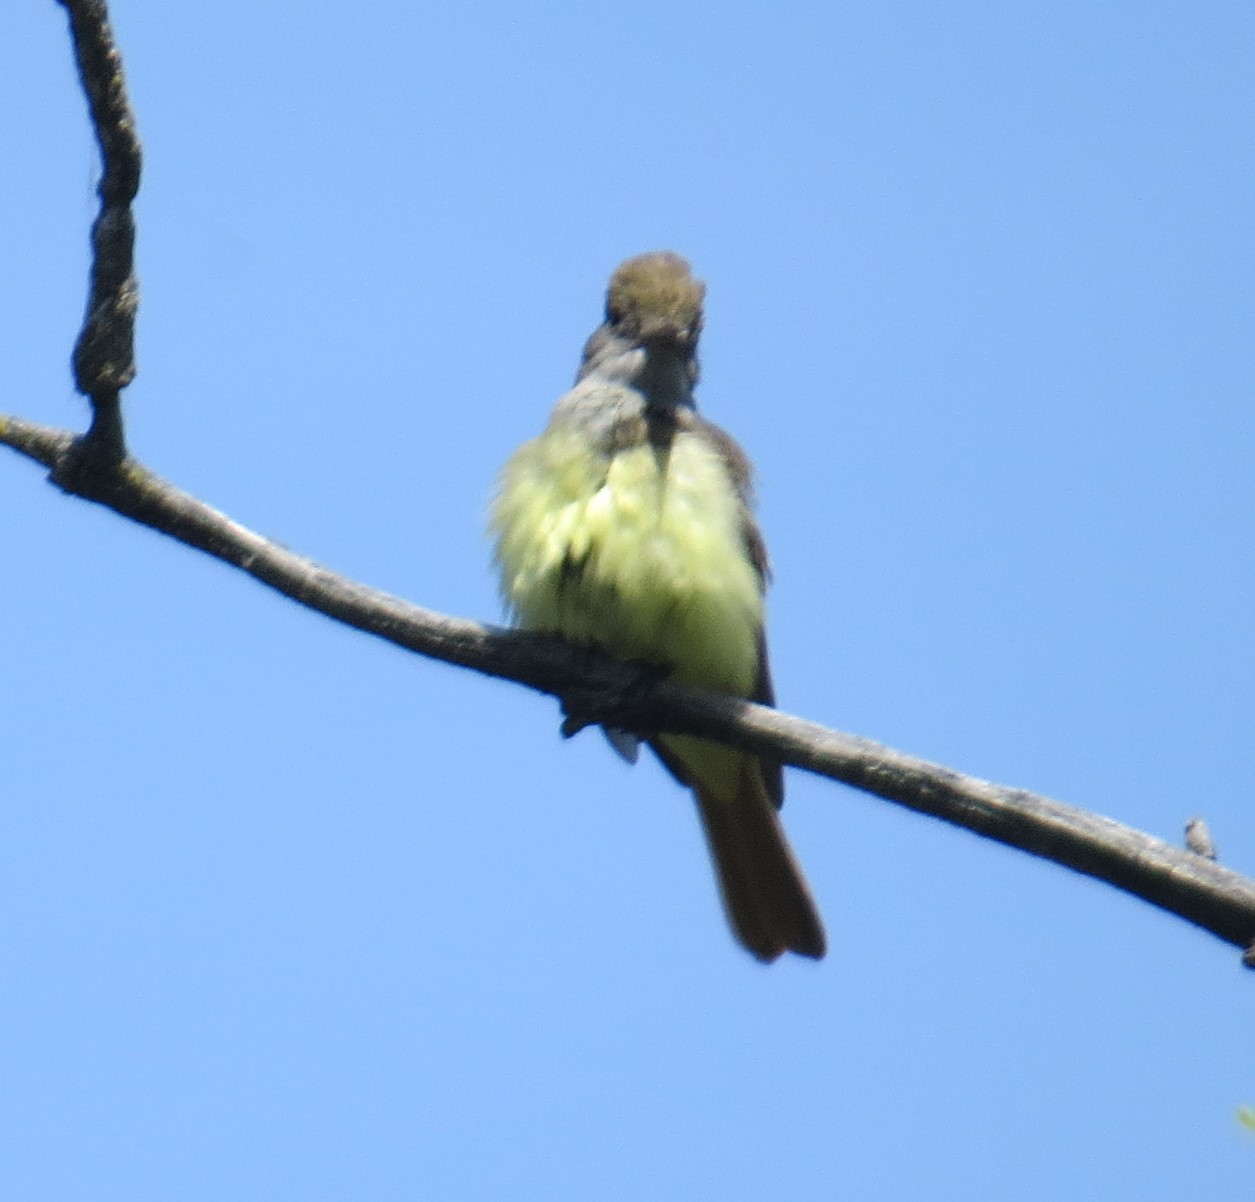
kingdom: Animalia
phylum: Chordata
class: Aves
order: Passeriformes
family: Tyrannidae
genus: Myiarchus
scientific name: Myiarchus crinitus
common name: Great crested flycatcher
